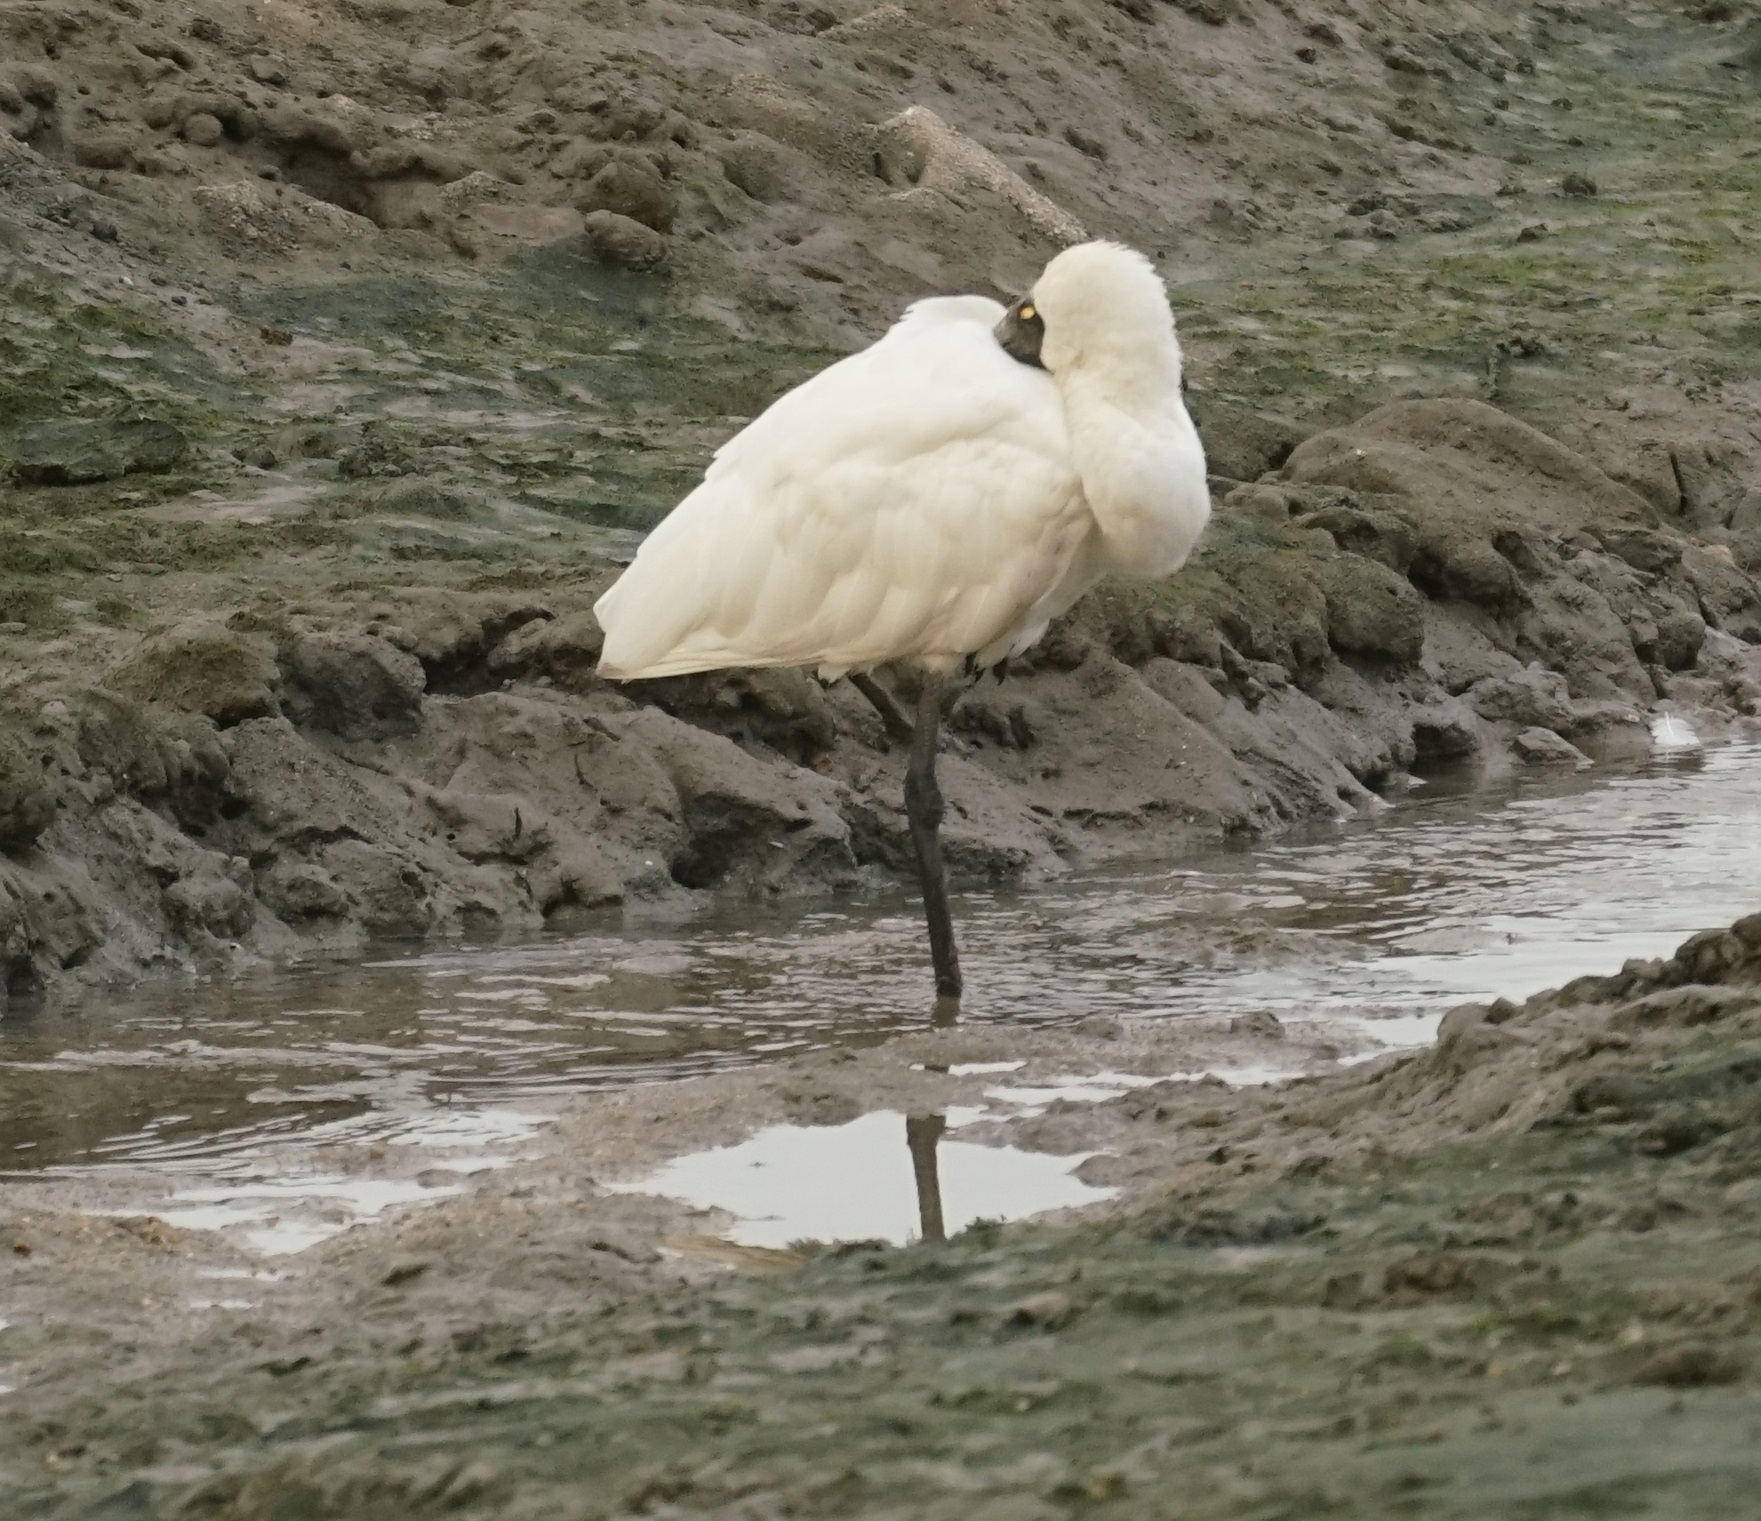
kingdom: Animalia
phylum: Chordata
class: Aves
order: Pelecaniformes
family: Threskiornithidae
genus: Platalea
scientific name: Platalea regia
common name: Royal spoonbill
